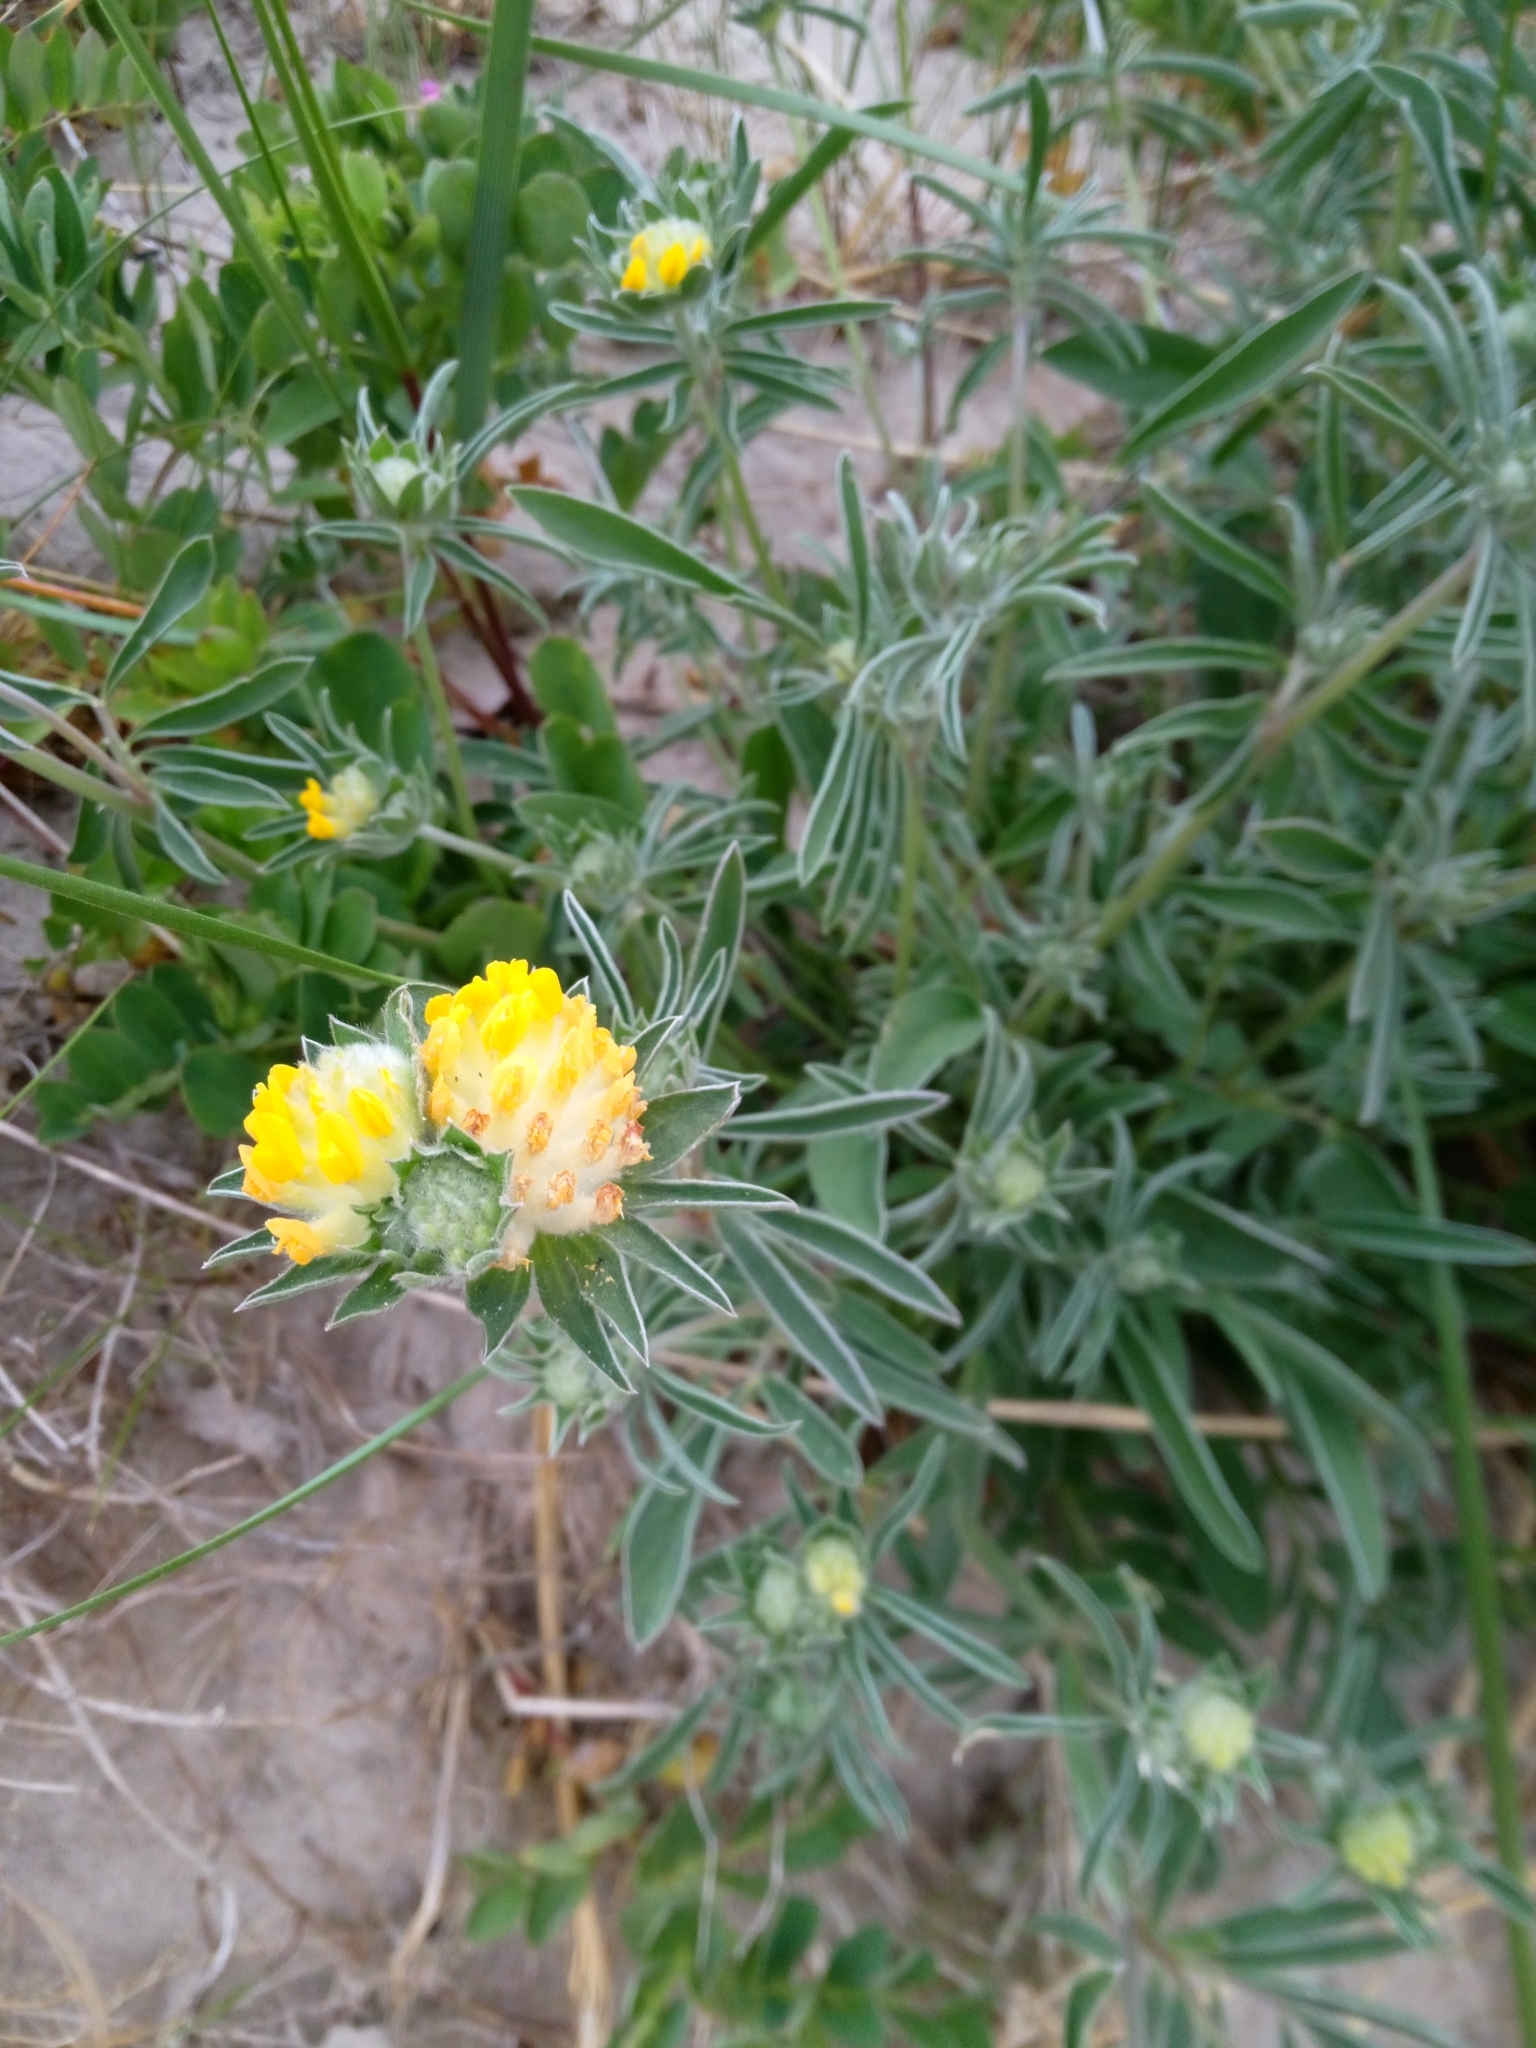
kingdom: Plantae
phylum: Tracheophyta
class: Magnoliopsida
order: Fabales
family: Fabaceae
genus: Anthyllis
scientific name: Anthyllis vulneraria
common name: Kidney vetch
